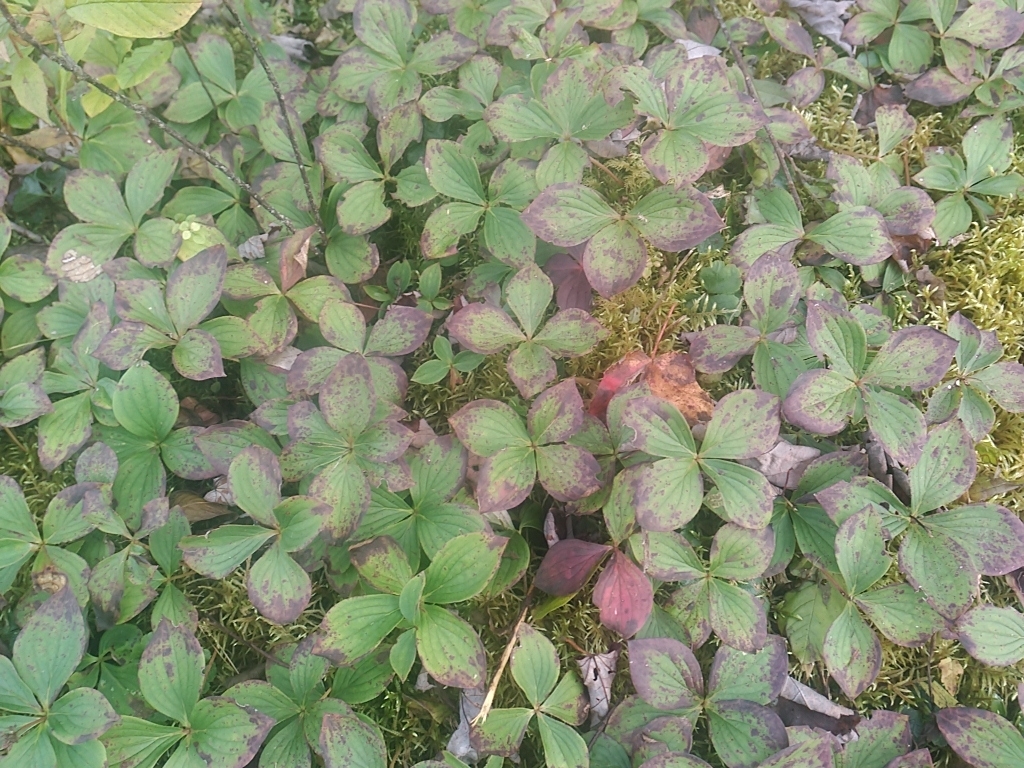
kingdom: Plantae
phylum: Tracheophyta
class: Magnoliopsida
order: Cornales
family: Cornaceae
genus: Cornus
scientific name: Cornus canadensis
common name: Creeping dogwood
